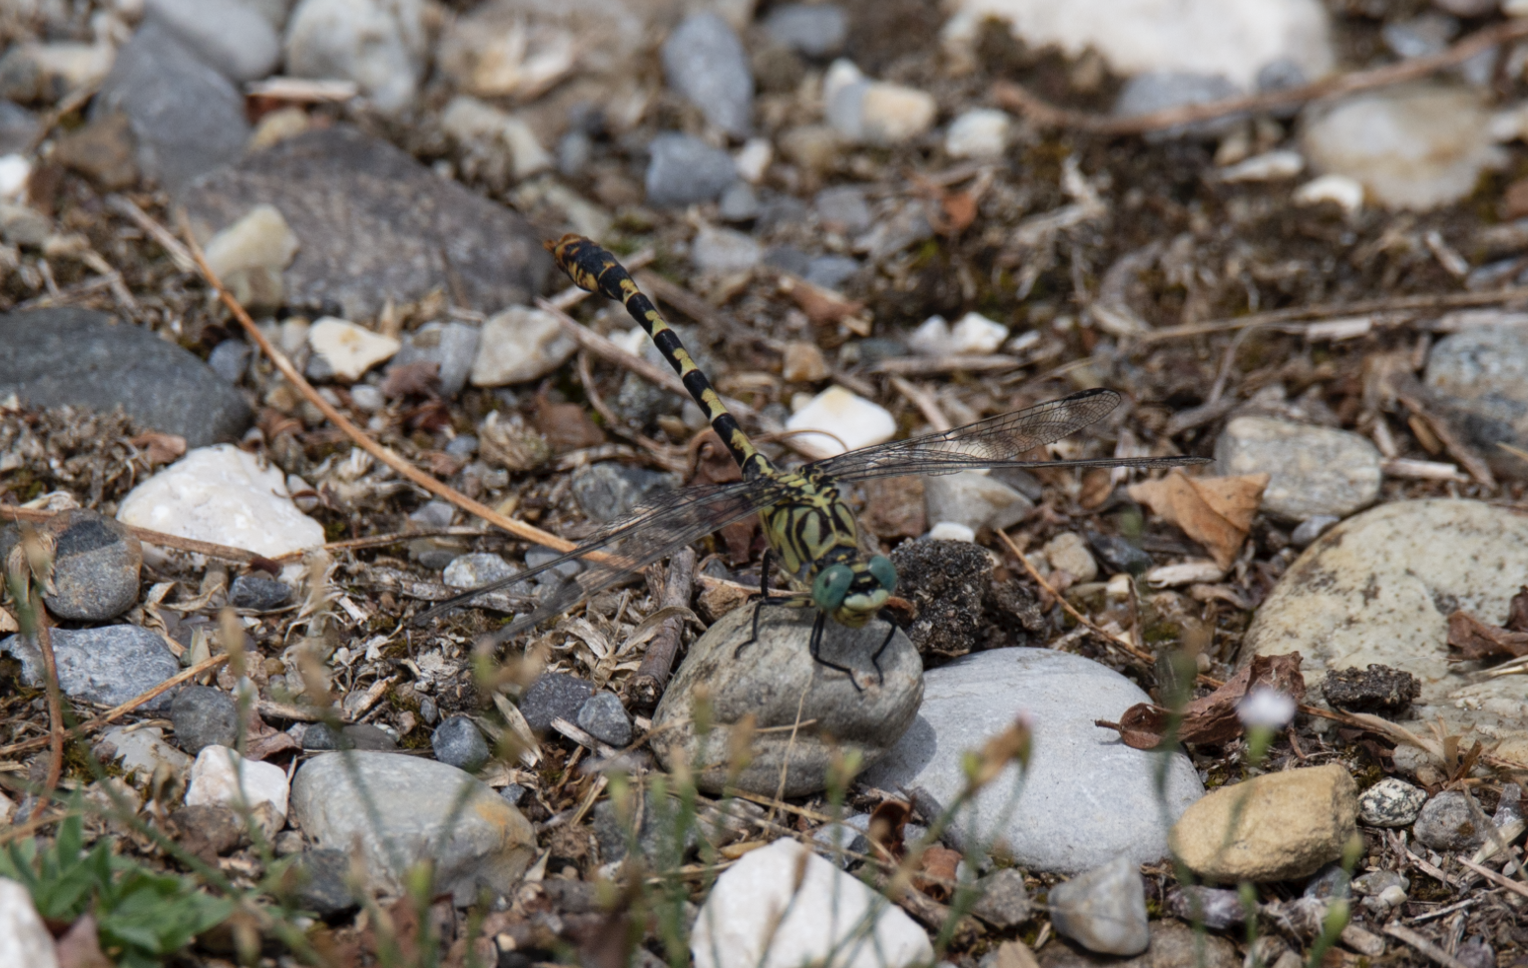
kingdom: Animalia
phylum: Arthropoda
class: Insecta
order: Odonata
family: Gomphidae
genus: Onychogomphus
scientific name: Onychogomphus forcipatus
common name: Small pincertail
